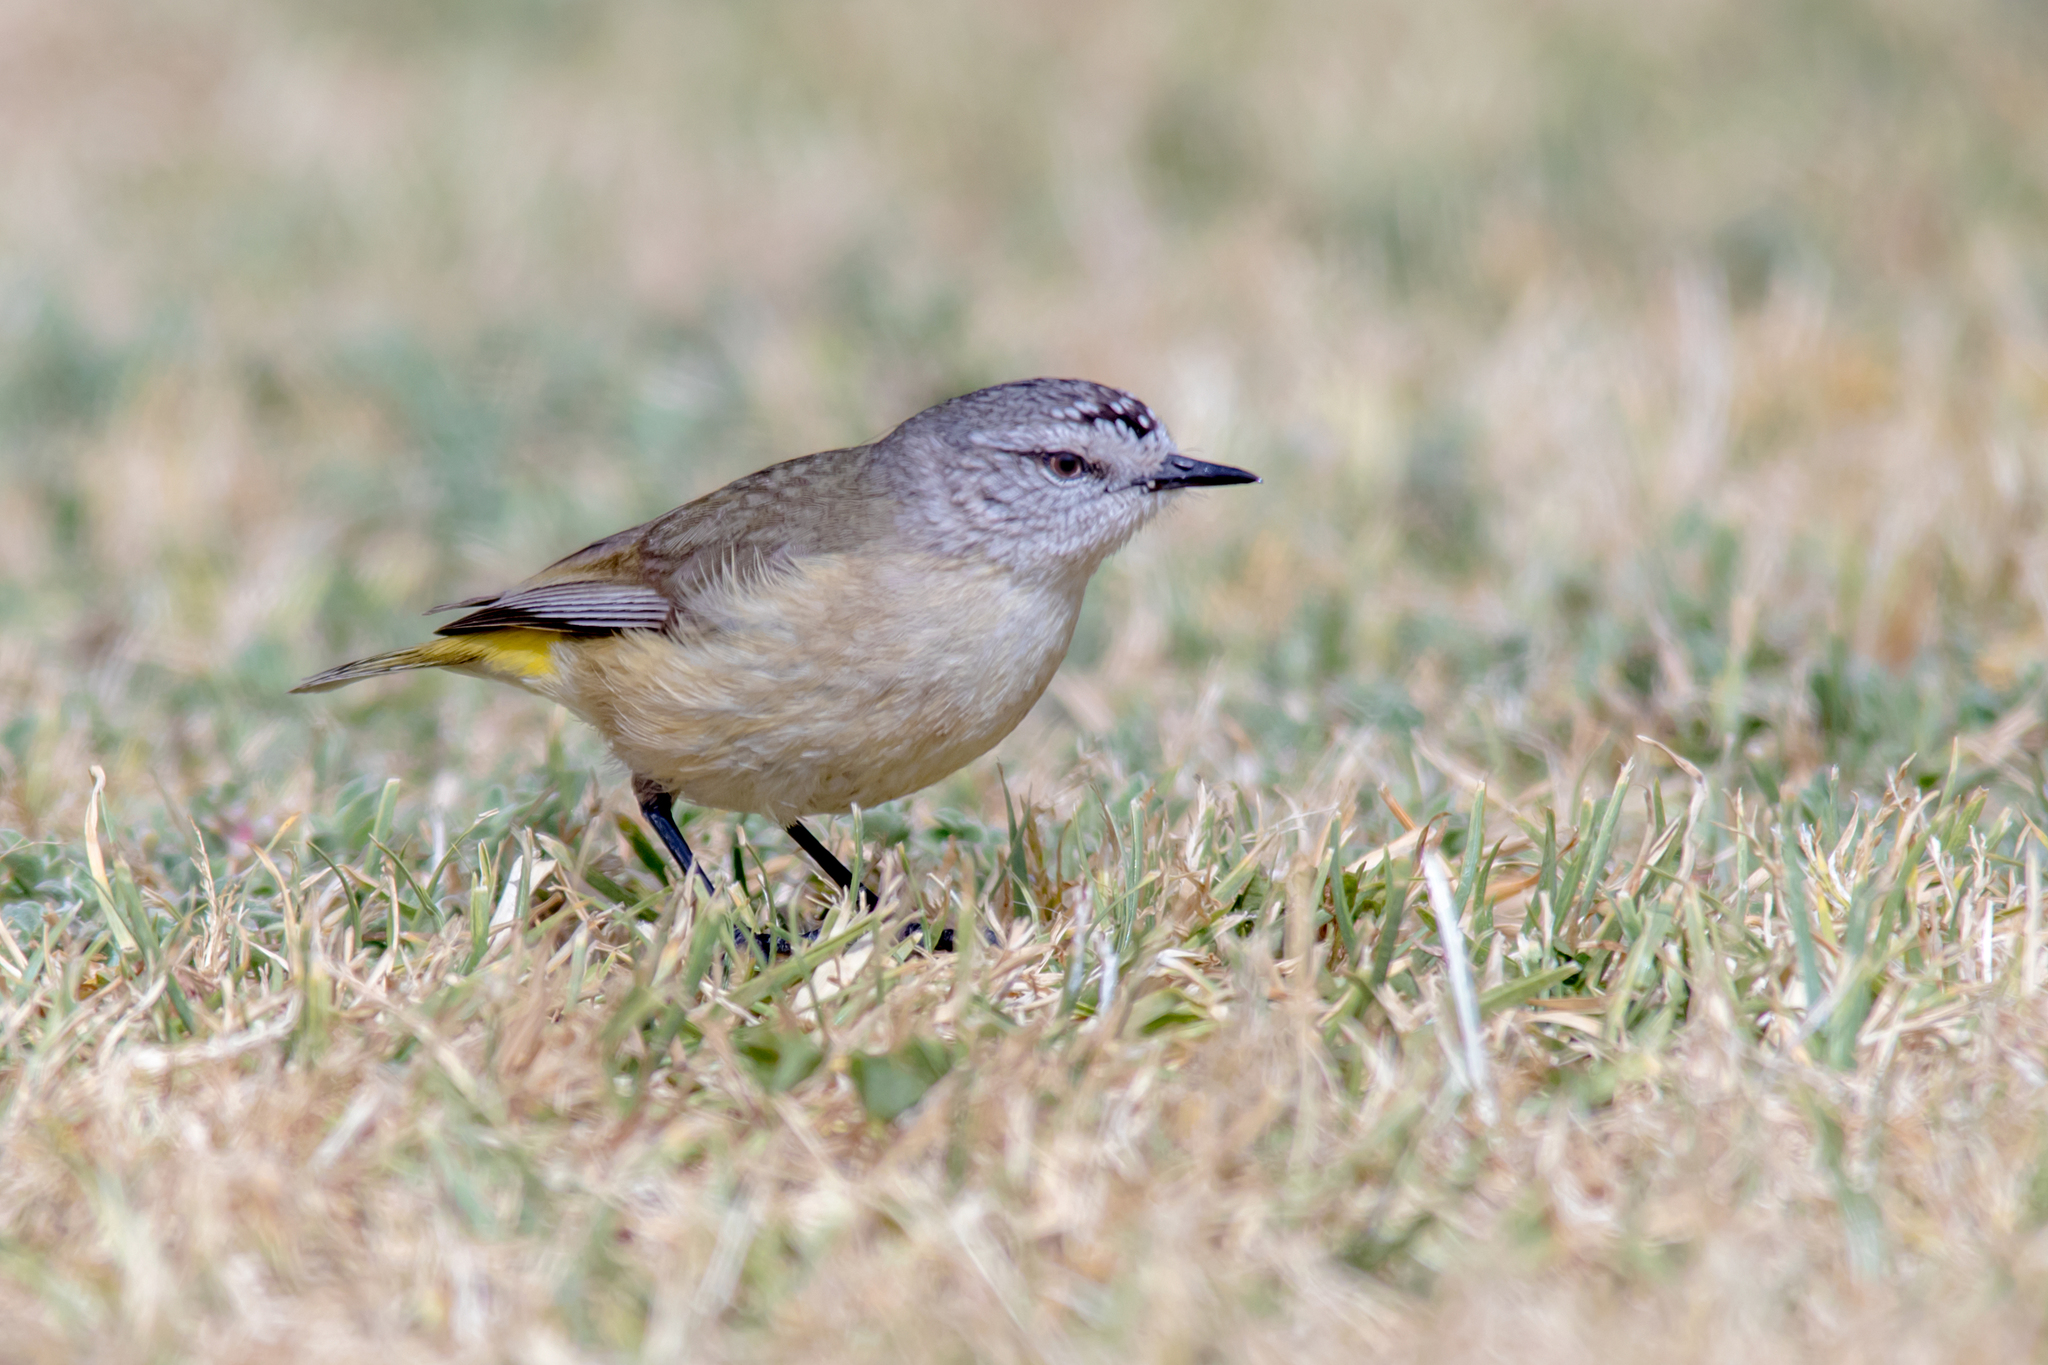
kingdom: Animalia
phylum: Chordata
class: Aves
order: Passeriformes
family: Acanthizidae
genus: Acanthiza
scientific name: Acanthiza chrysorrhoa
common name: Yellow-rumped thornbill
